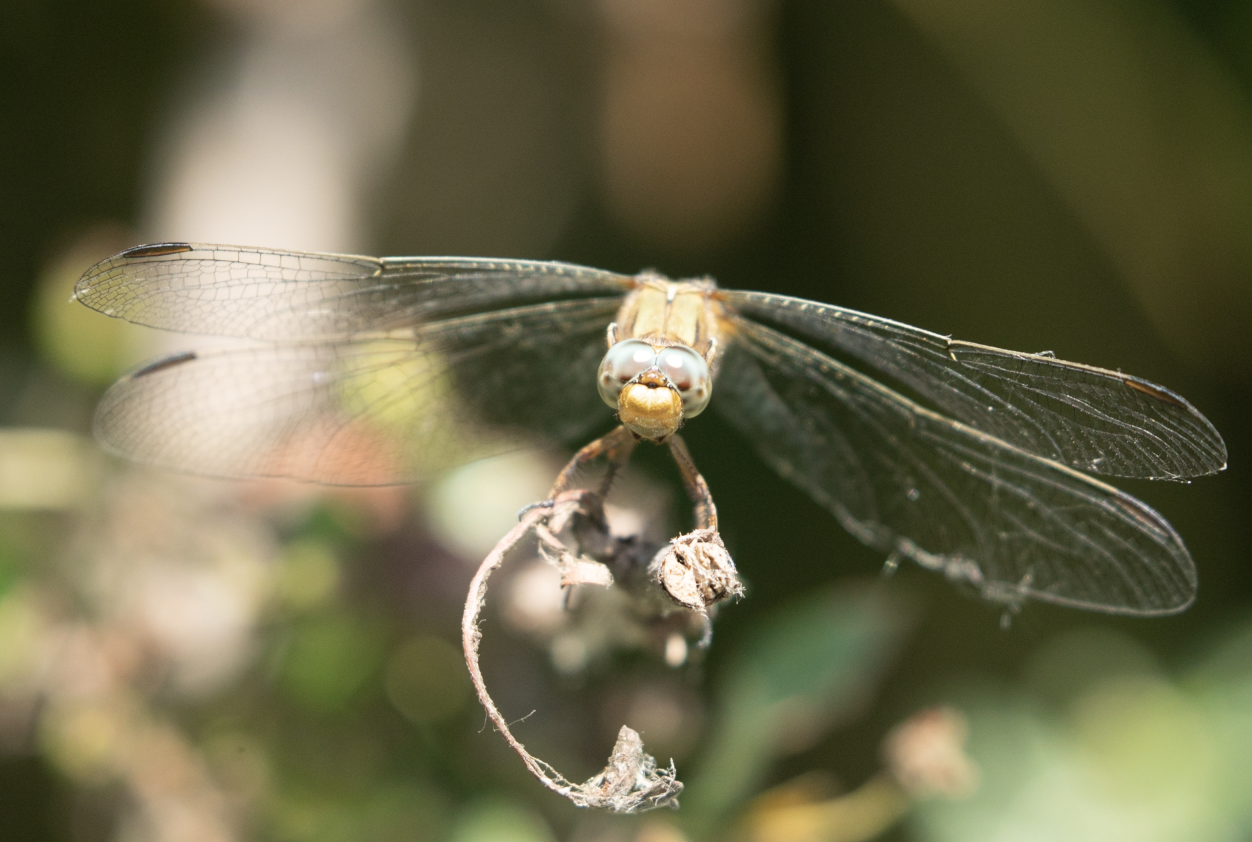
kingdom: Animalia
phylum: Arthropoda
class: Insecta
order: Odonata
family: Libellulidae
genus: Orthetrum
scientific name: Orthetrum coerulescens
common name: Keeled skimmer
